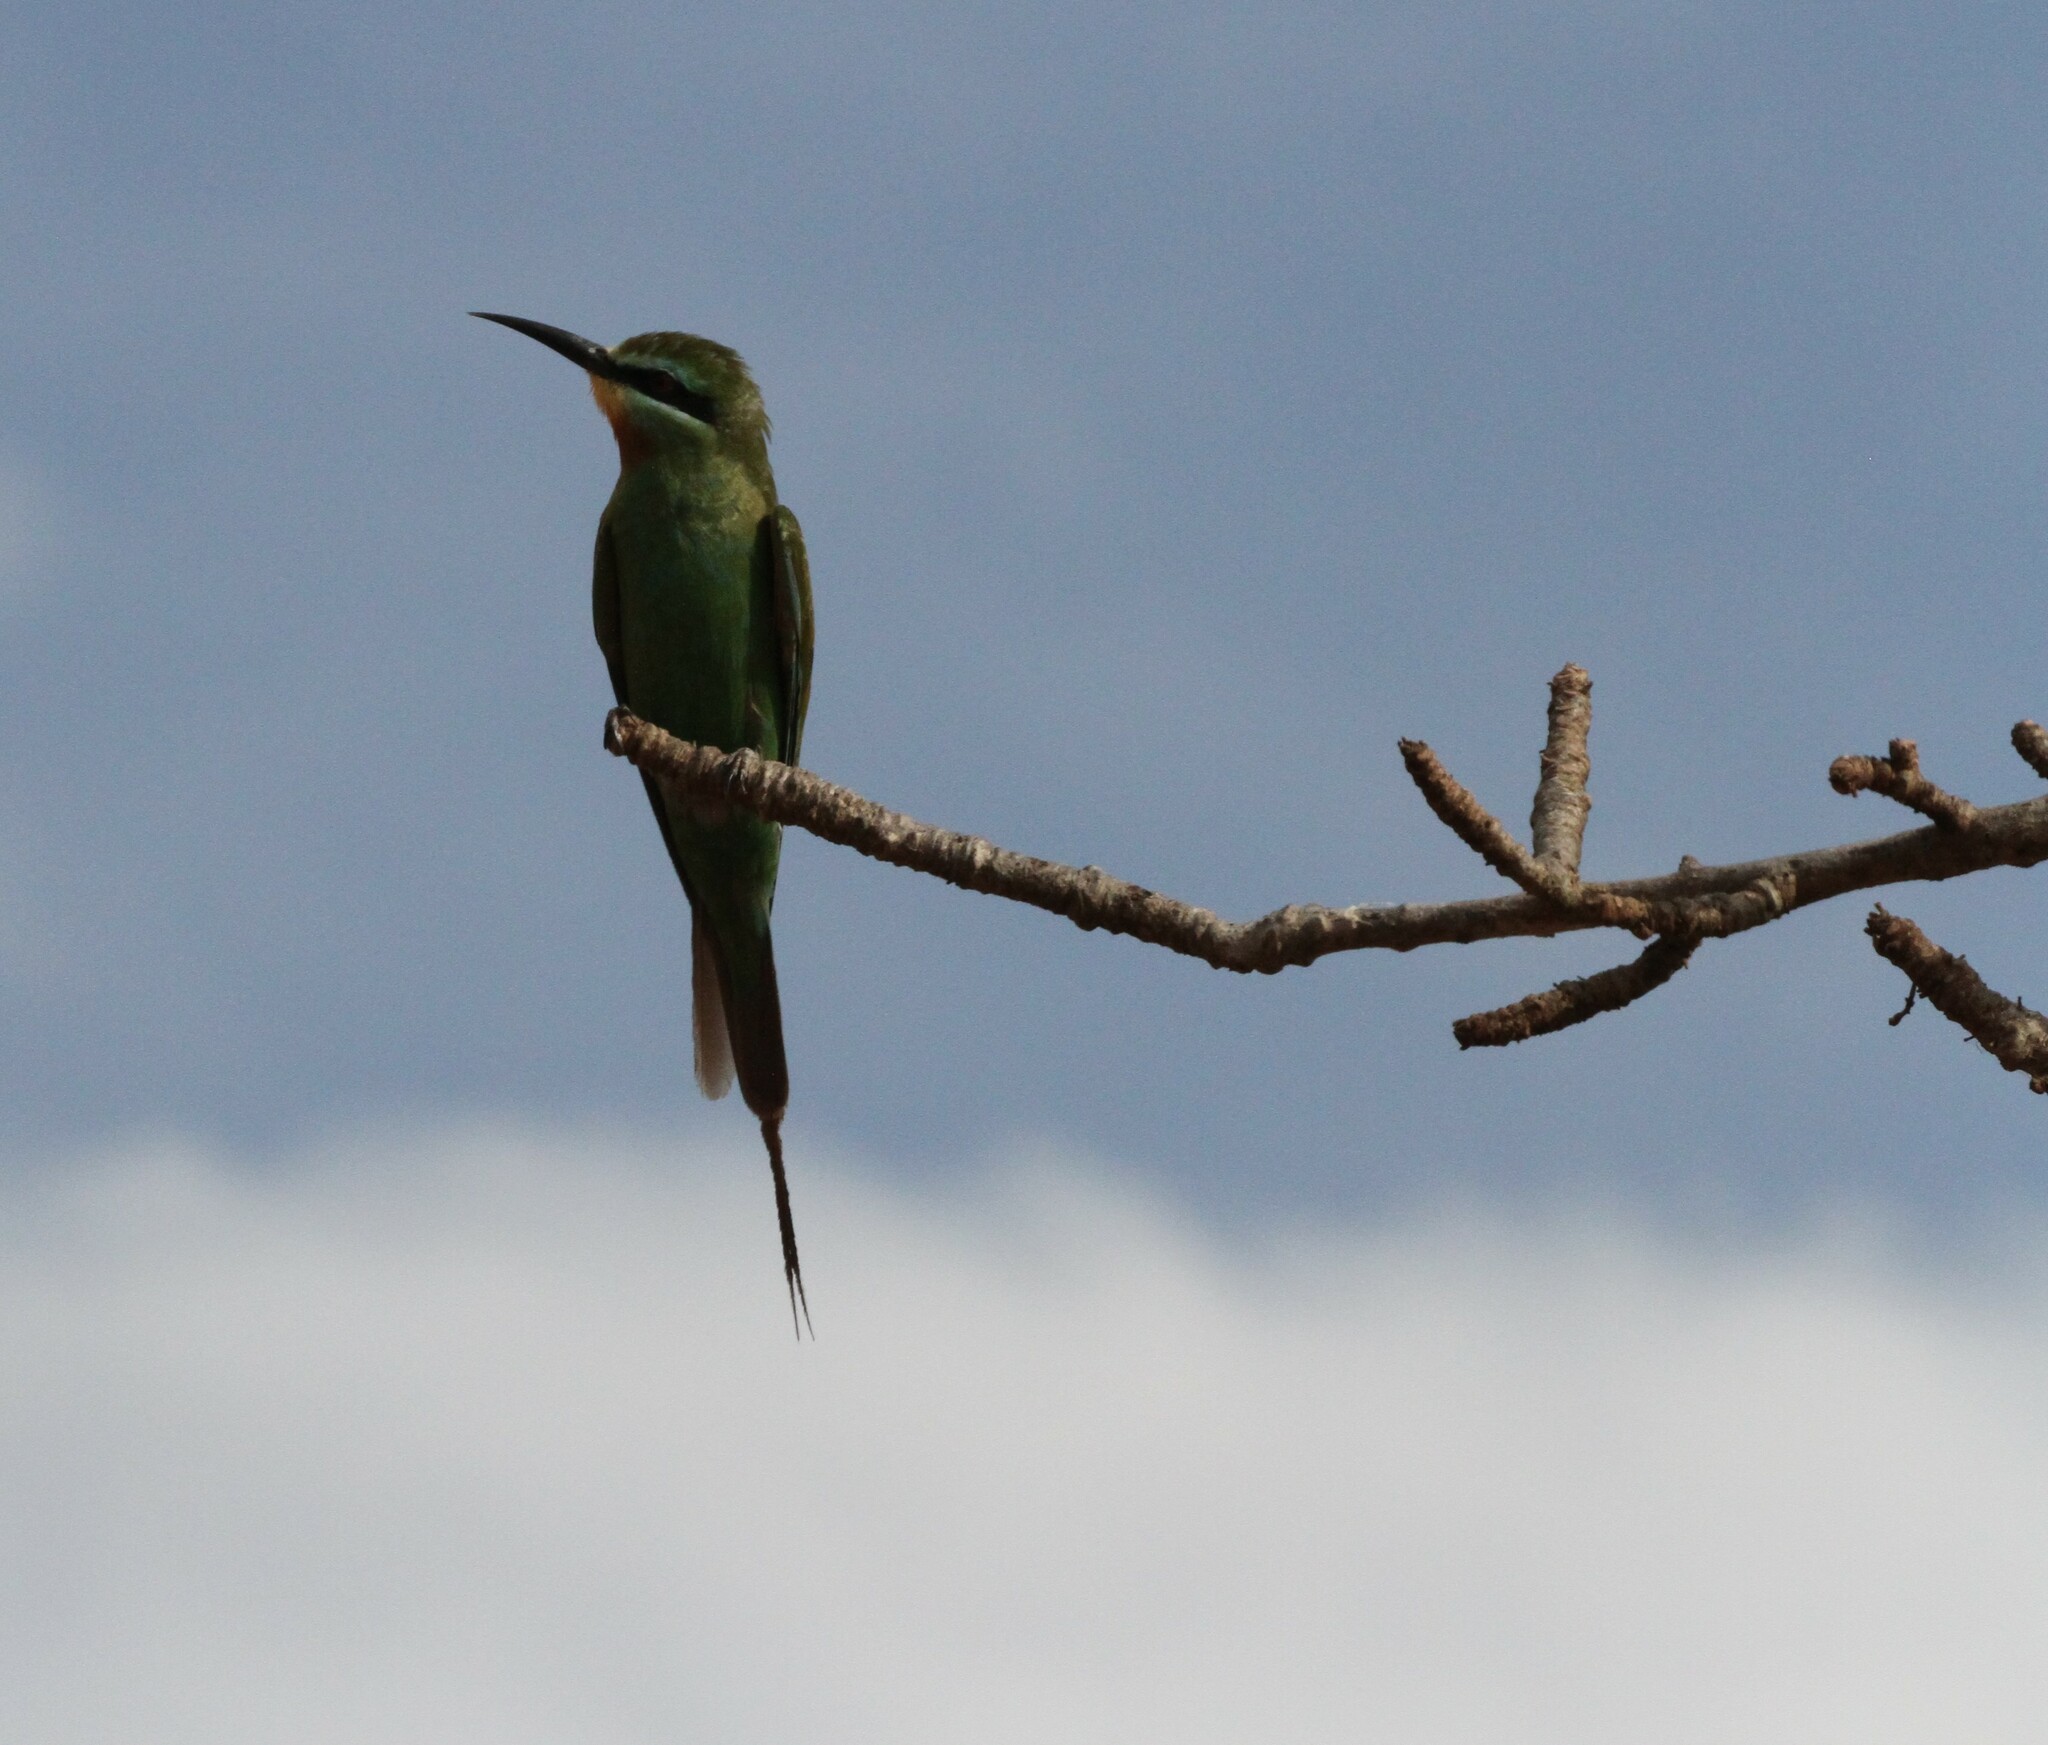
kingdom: Animalia
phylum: Chordata
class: Aves
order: Coraciiformes
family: Meropidae
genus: Merops
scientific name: Merops persicus
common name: Blue-cheeked bee-eater
